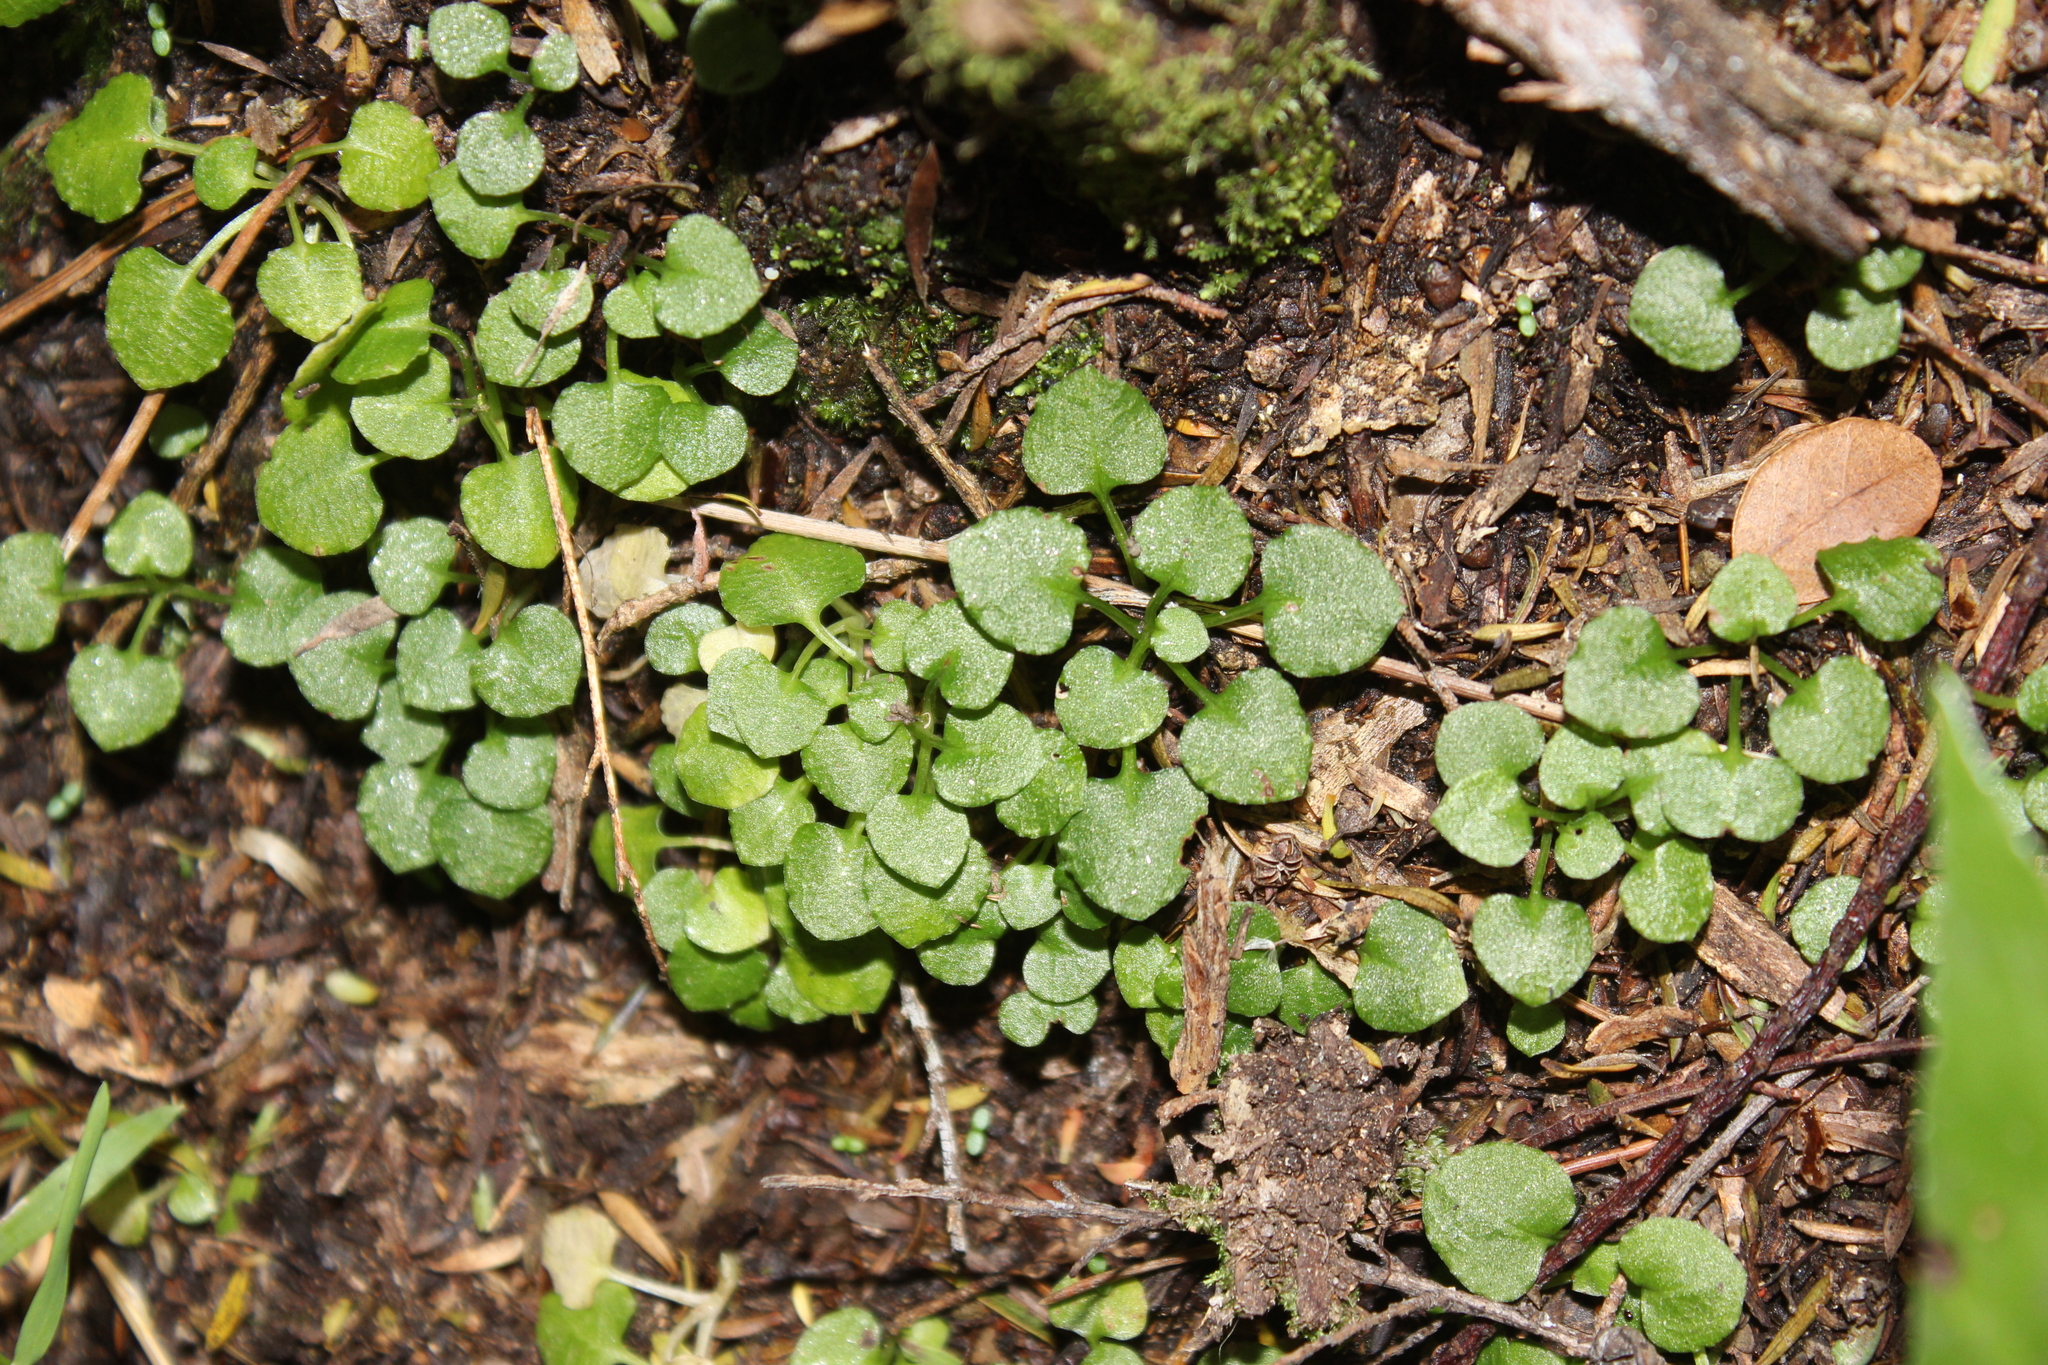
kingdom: Plantae
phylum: Tracheophyta
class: Liliopsida
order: Asparagales
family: Orchidaceae
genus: Pterostylis
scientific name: Pterostylis alobula
